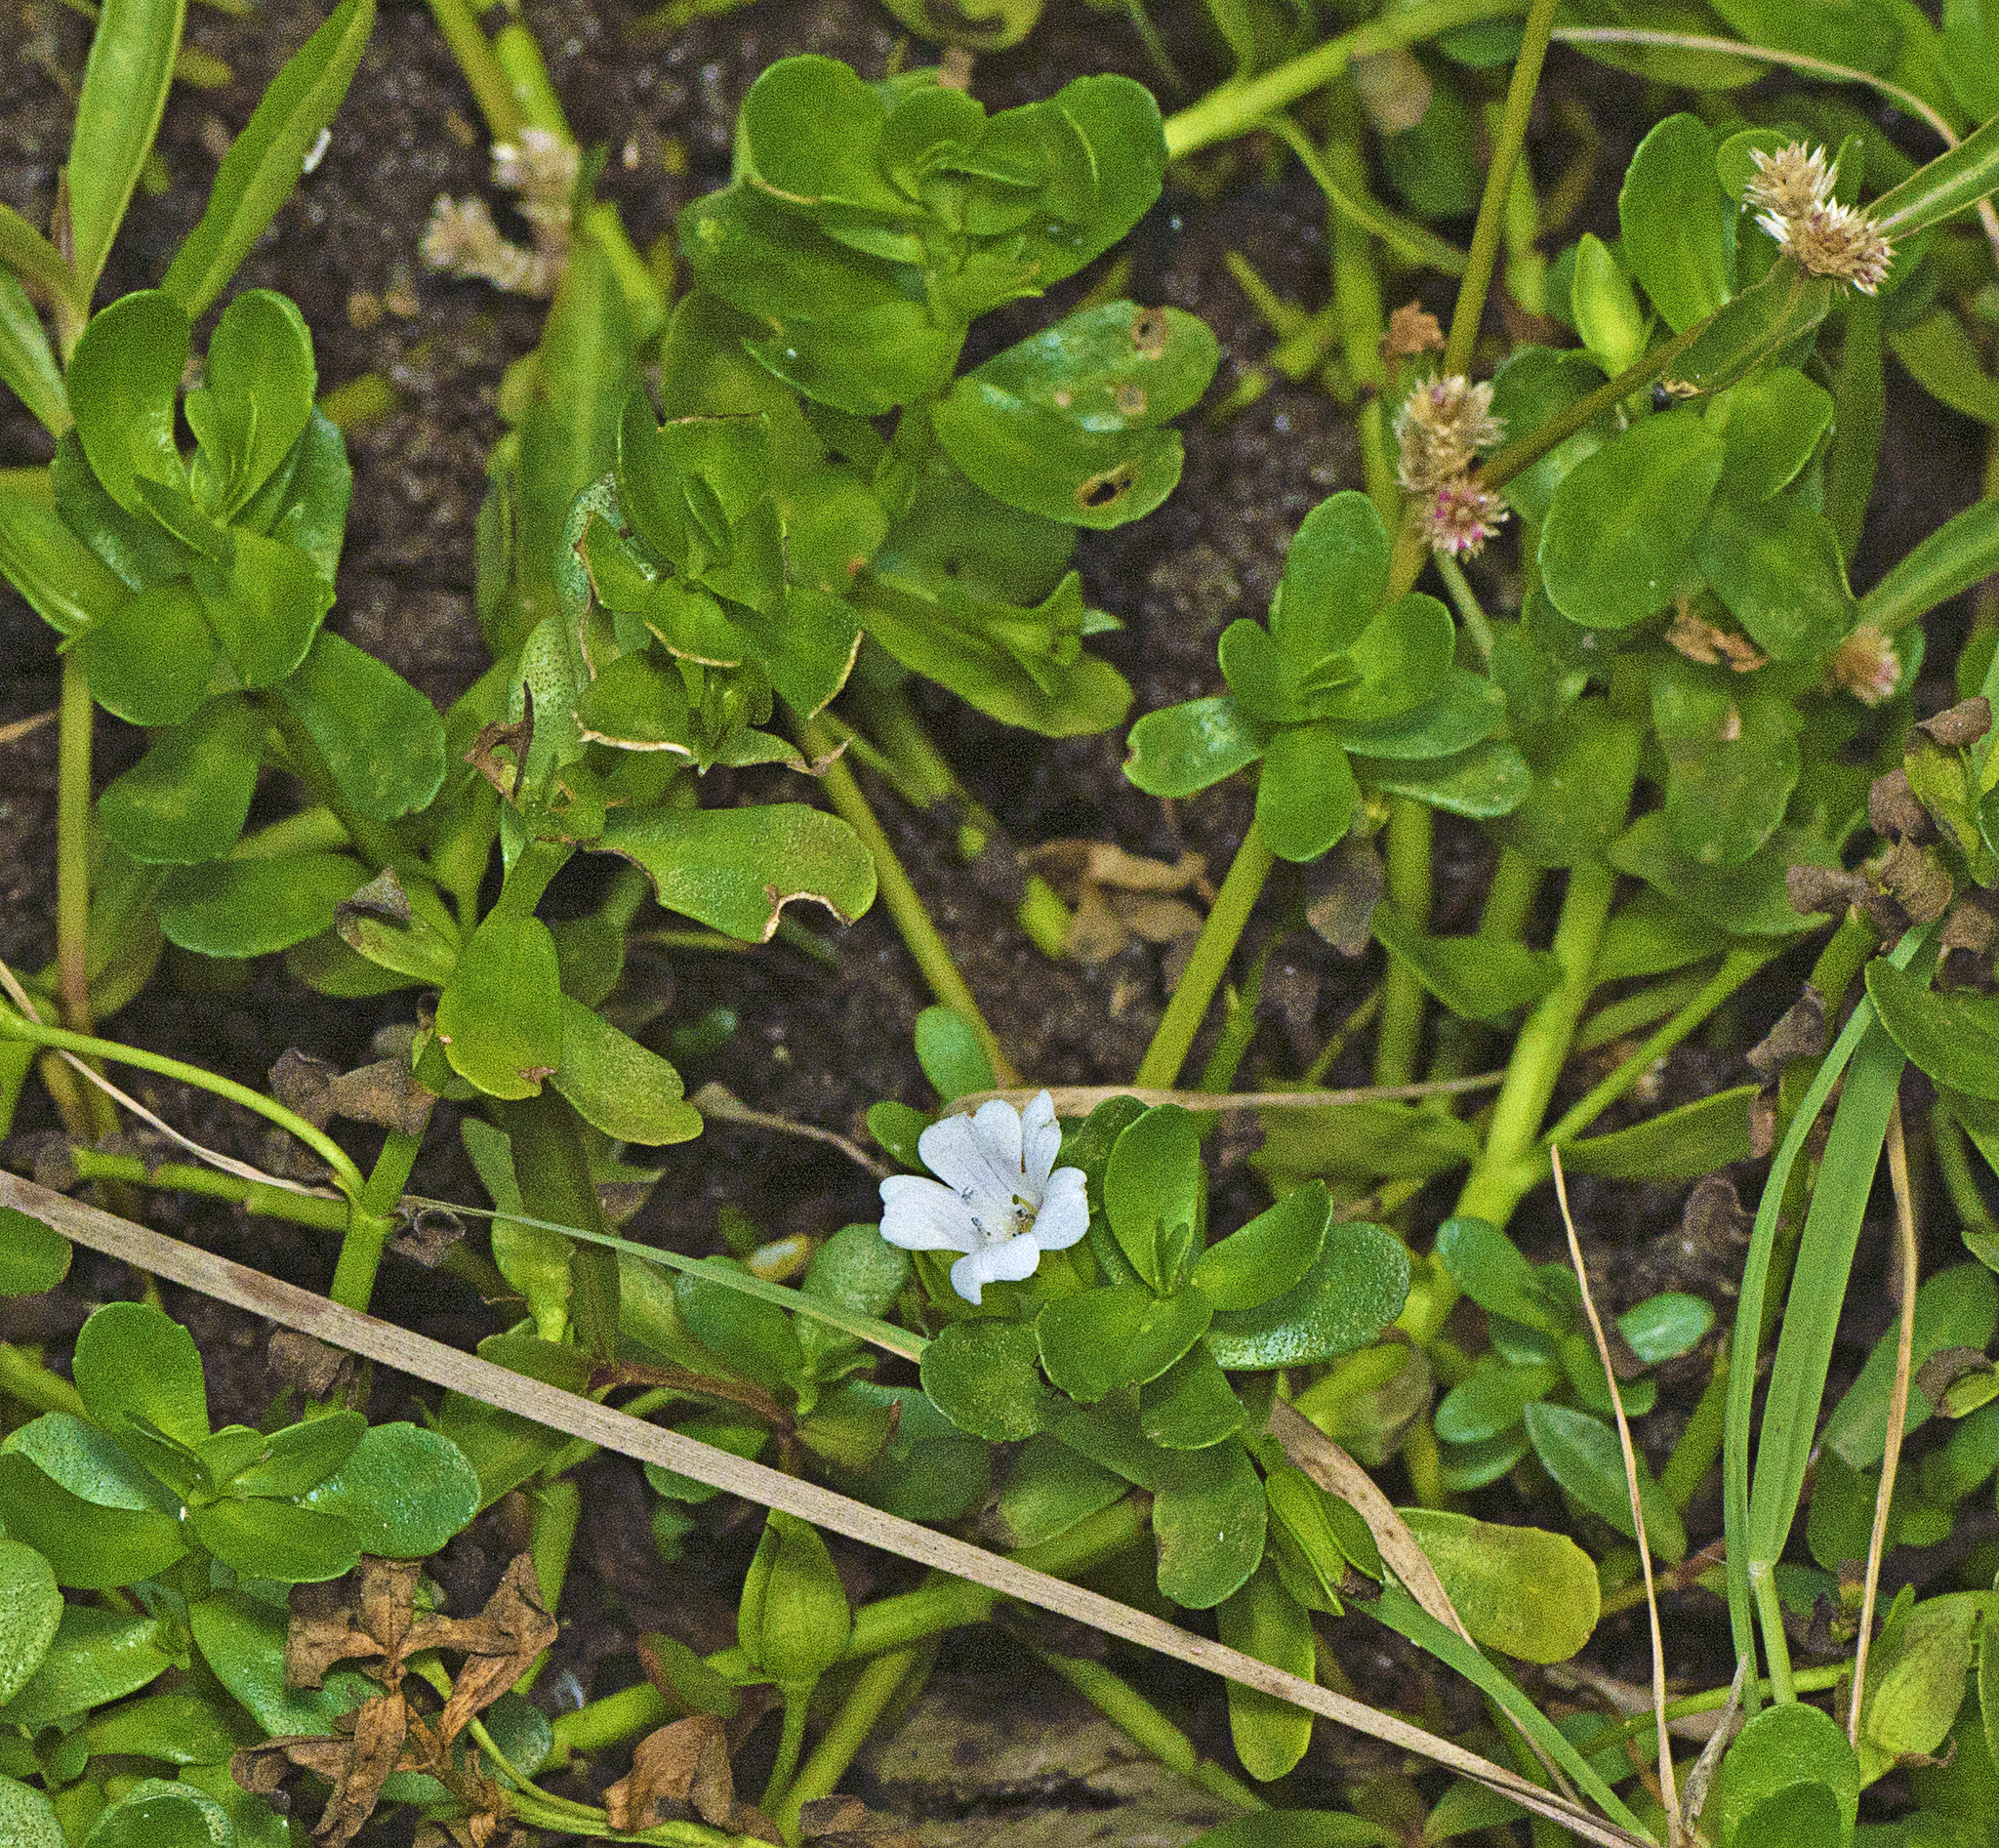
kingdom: Plantae
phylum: Tracheophyta
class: Magnoliopsida
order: Lamiales
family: Plantaginaceae
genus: Bacopa
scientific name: Bacopa monnieri
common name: Indian-pennywort
